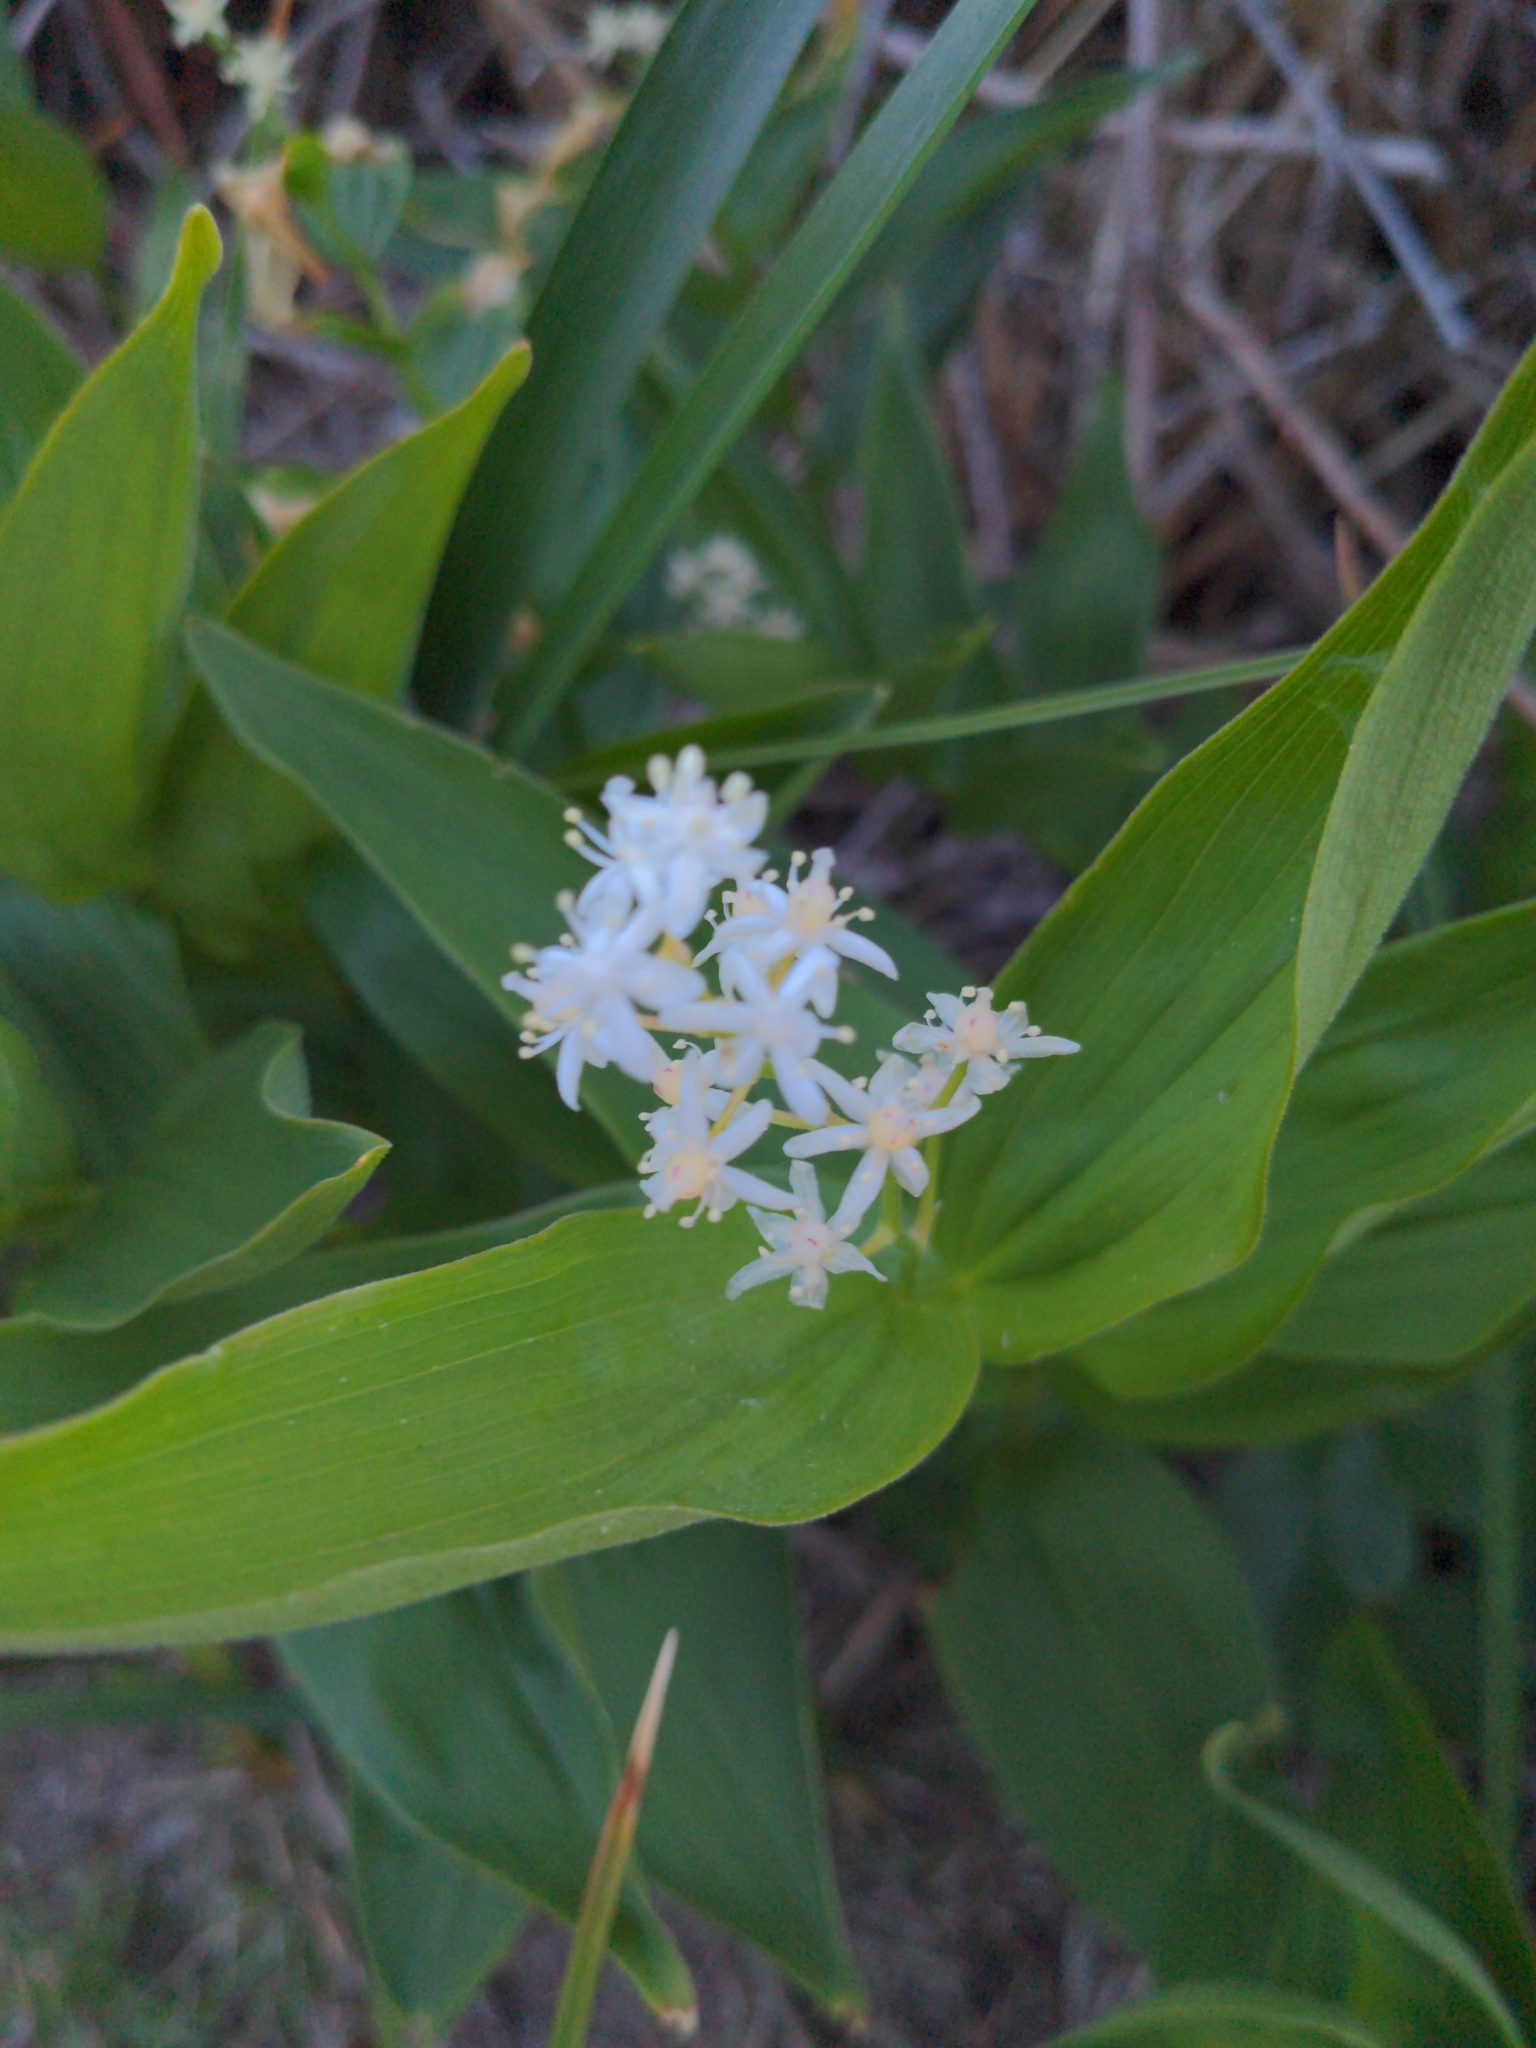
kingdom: Plantae
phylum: Tracheophyta
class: Liliopsida
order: Asparagales
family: Asparagaceae
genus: Maianthemum
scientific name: Maianthemum stellatum
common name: Little false solomon's seal
